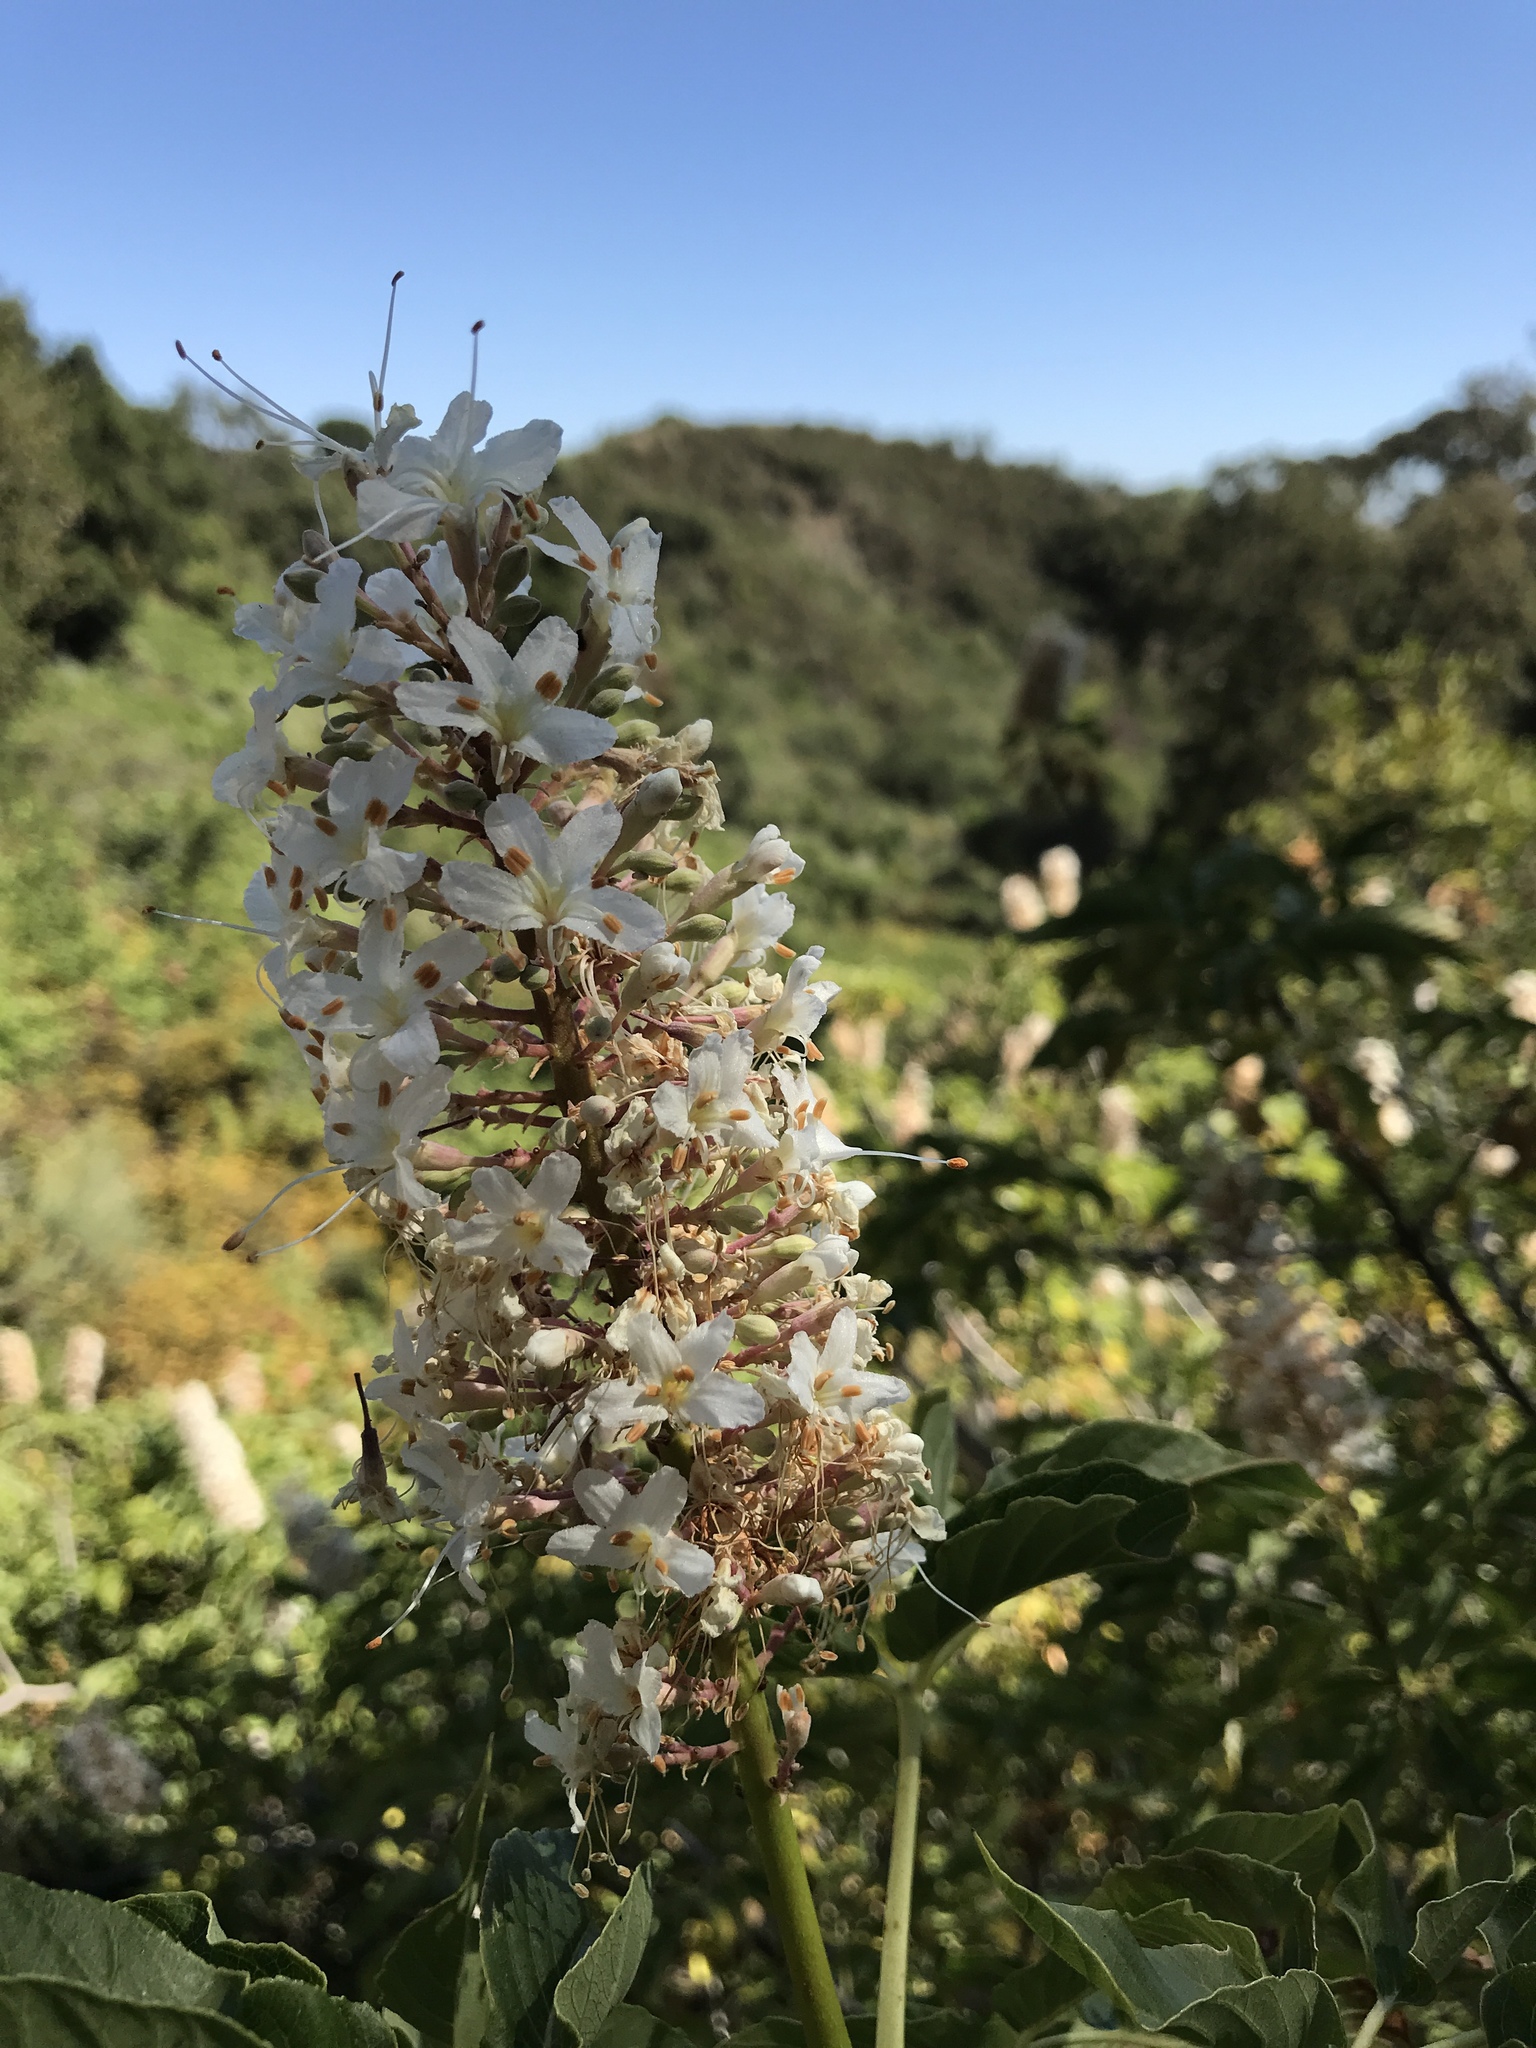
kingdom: Plantae
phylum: Tracheophyta
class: Magnoliopsida
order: Sapindales
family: Sapindaceae
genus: Aesculus
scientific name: Aesculus californica
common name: California buckeye
